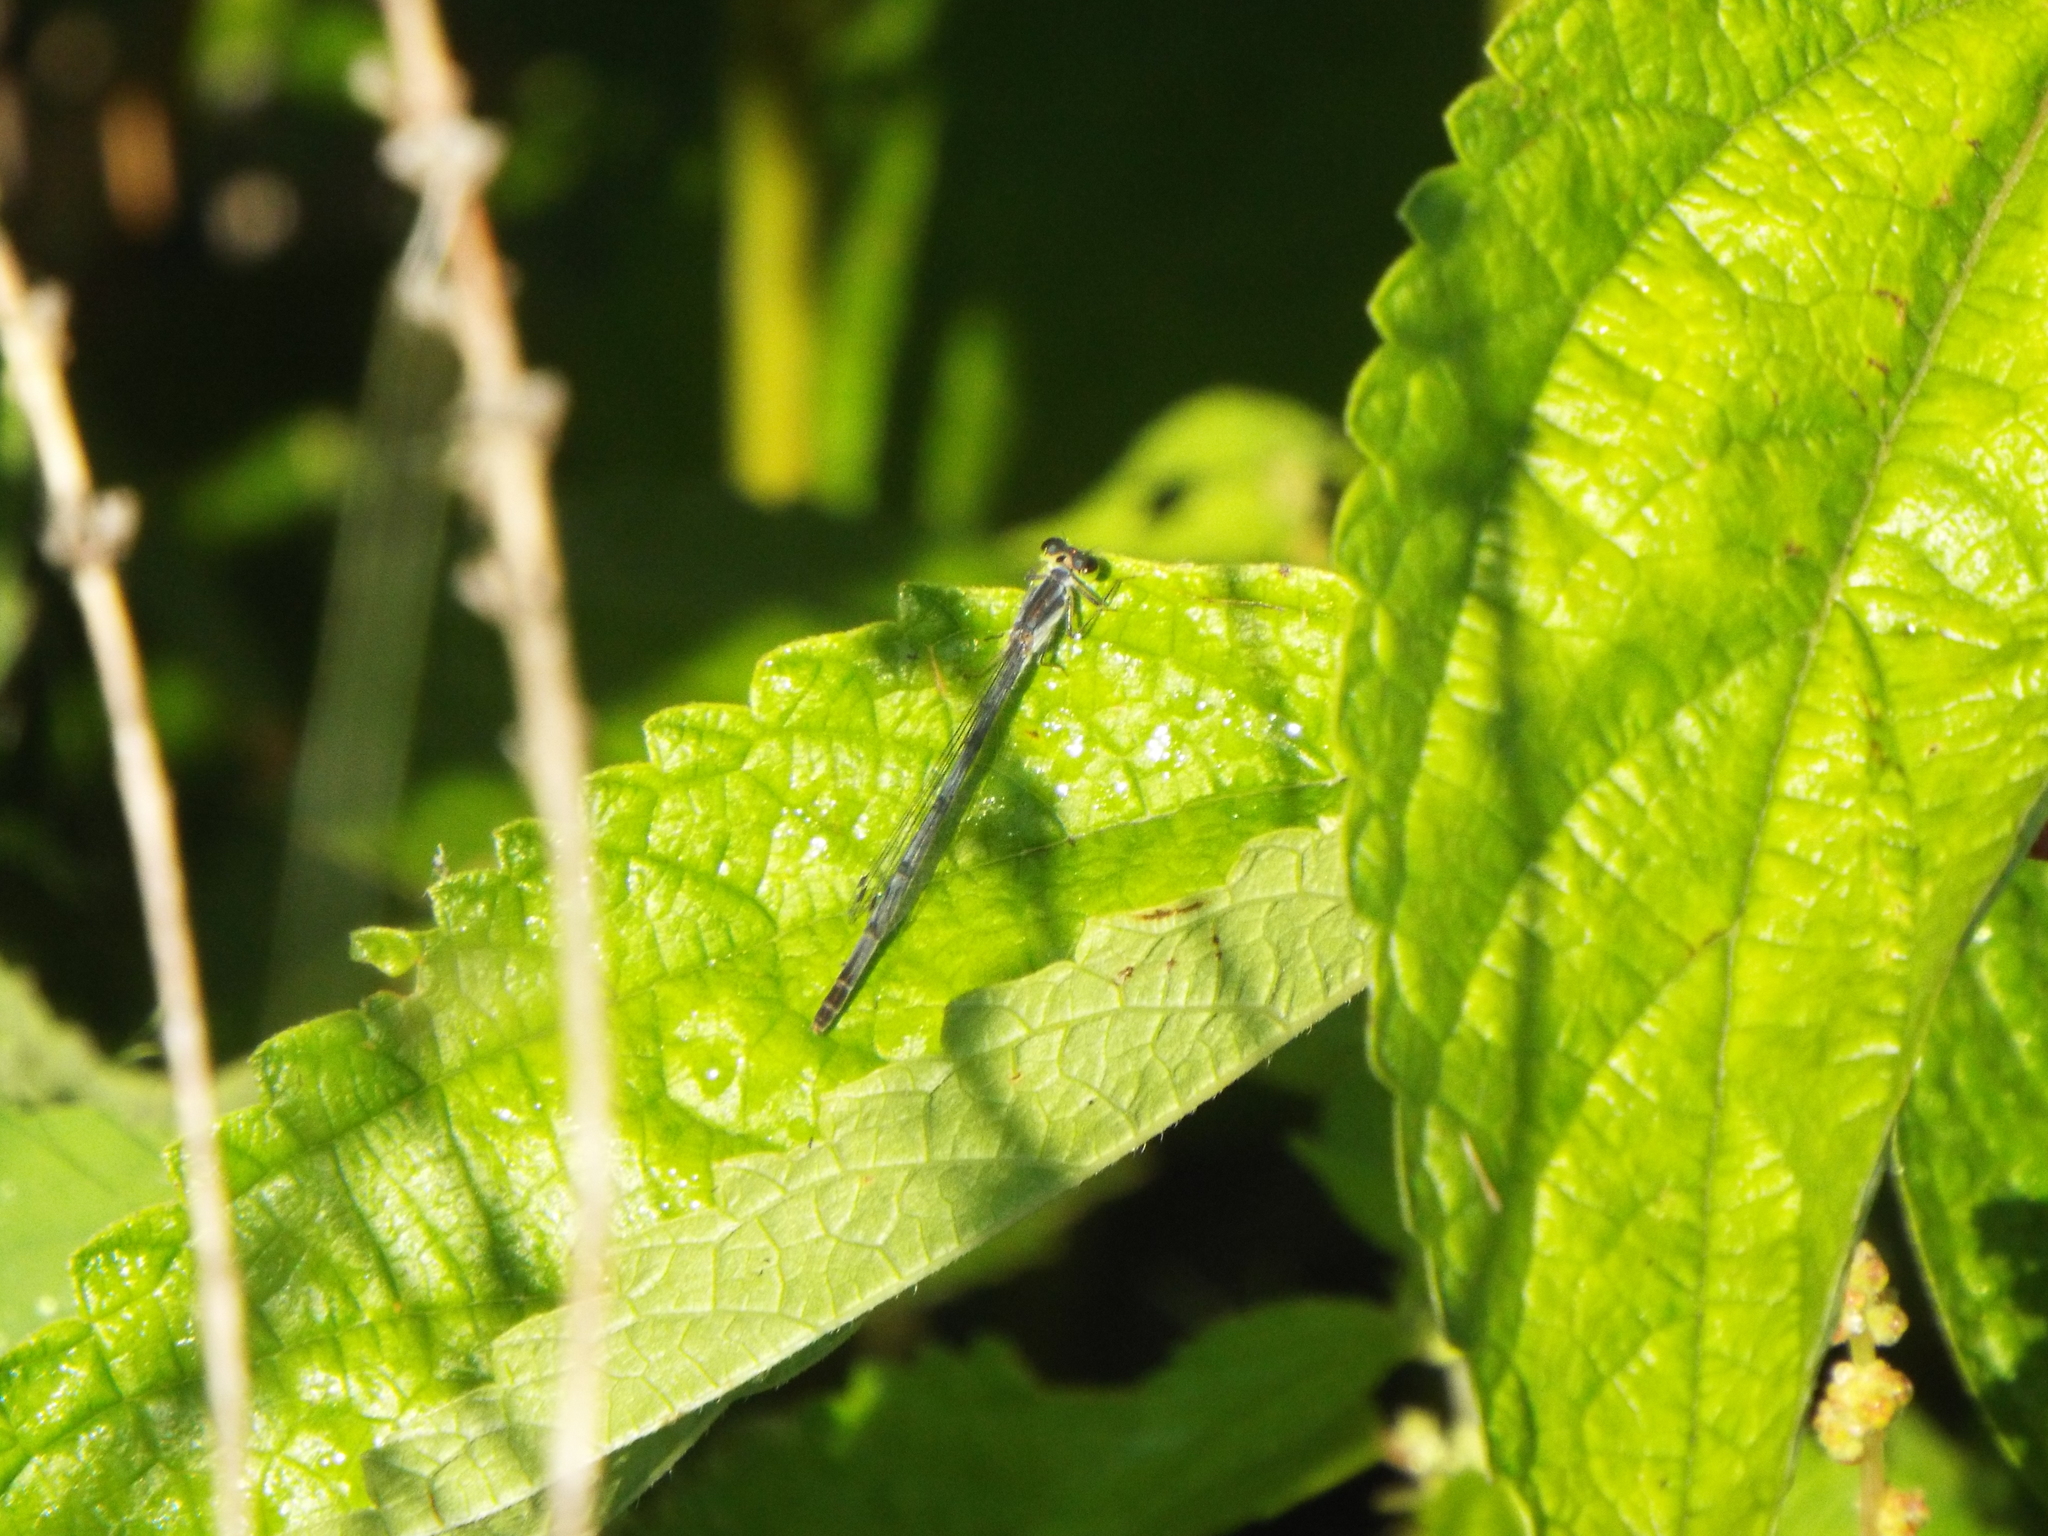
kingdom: Animalia
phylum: Arthropoda
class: Insecta
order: Odonata
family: Coenagrionidae
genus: Ischnura
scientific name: Ischnura posita
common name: Fragile forktail
